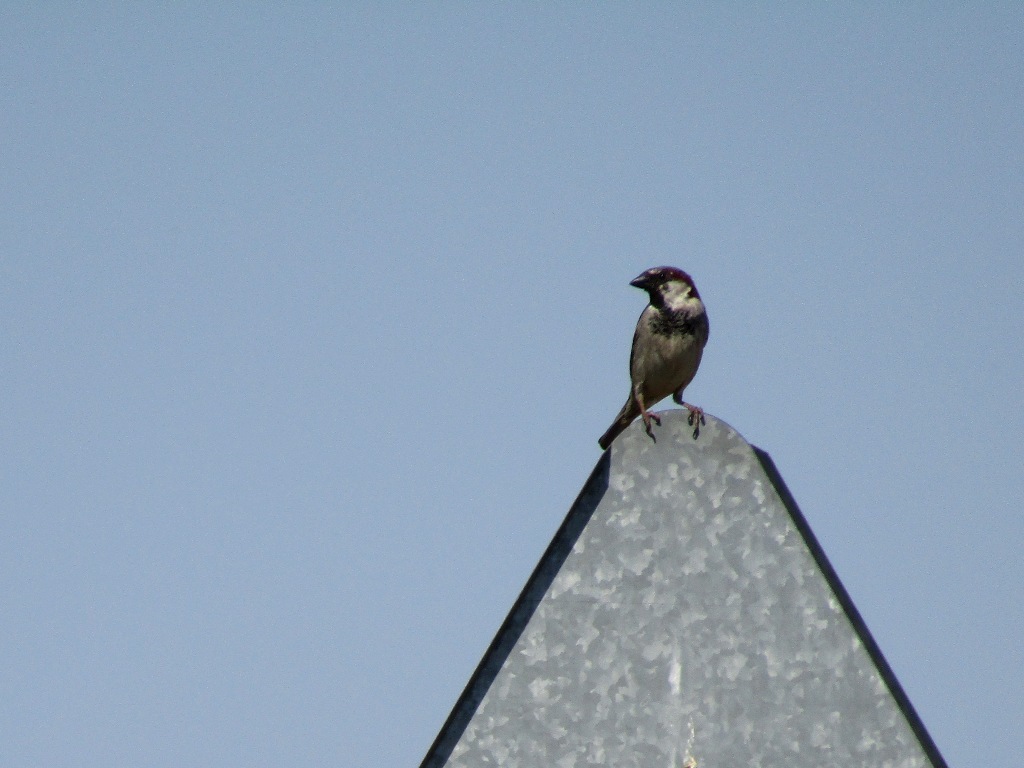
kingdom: Animalia
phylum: Chordata
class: Aves
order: Passeriformes
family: Passeridae
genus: Passer
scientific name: Passer domesticus
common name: House sparrow
